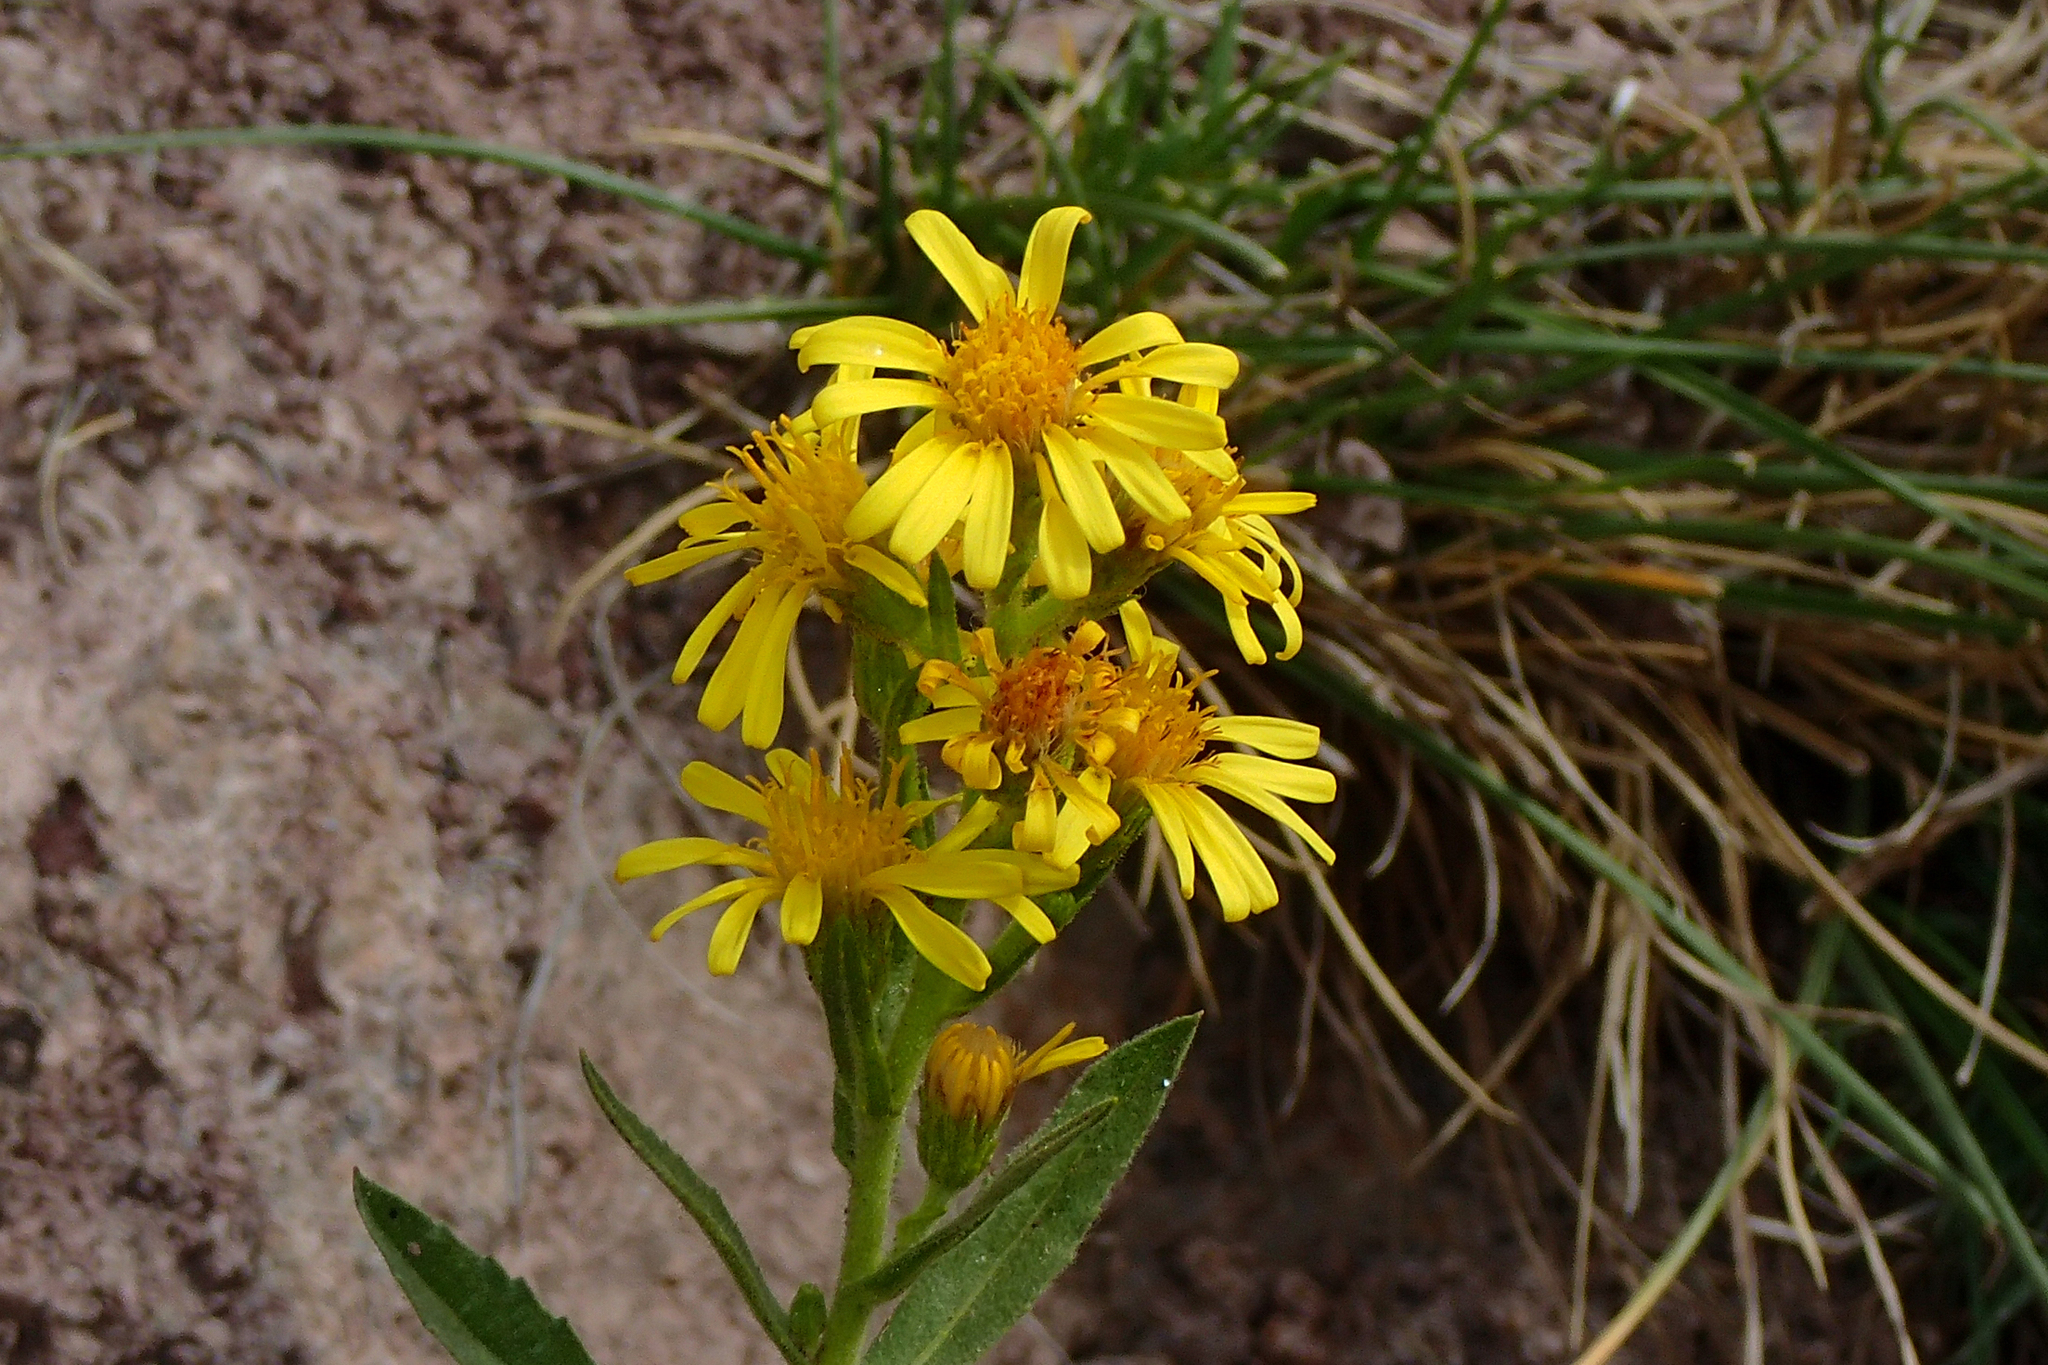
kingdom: Plantae
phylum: Tracheophyta
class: Magnoliopsida
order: Asterales
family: Asteraceae
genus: Dittrichia
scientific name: Dittrichia viscosa
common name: Woody fleabane
